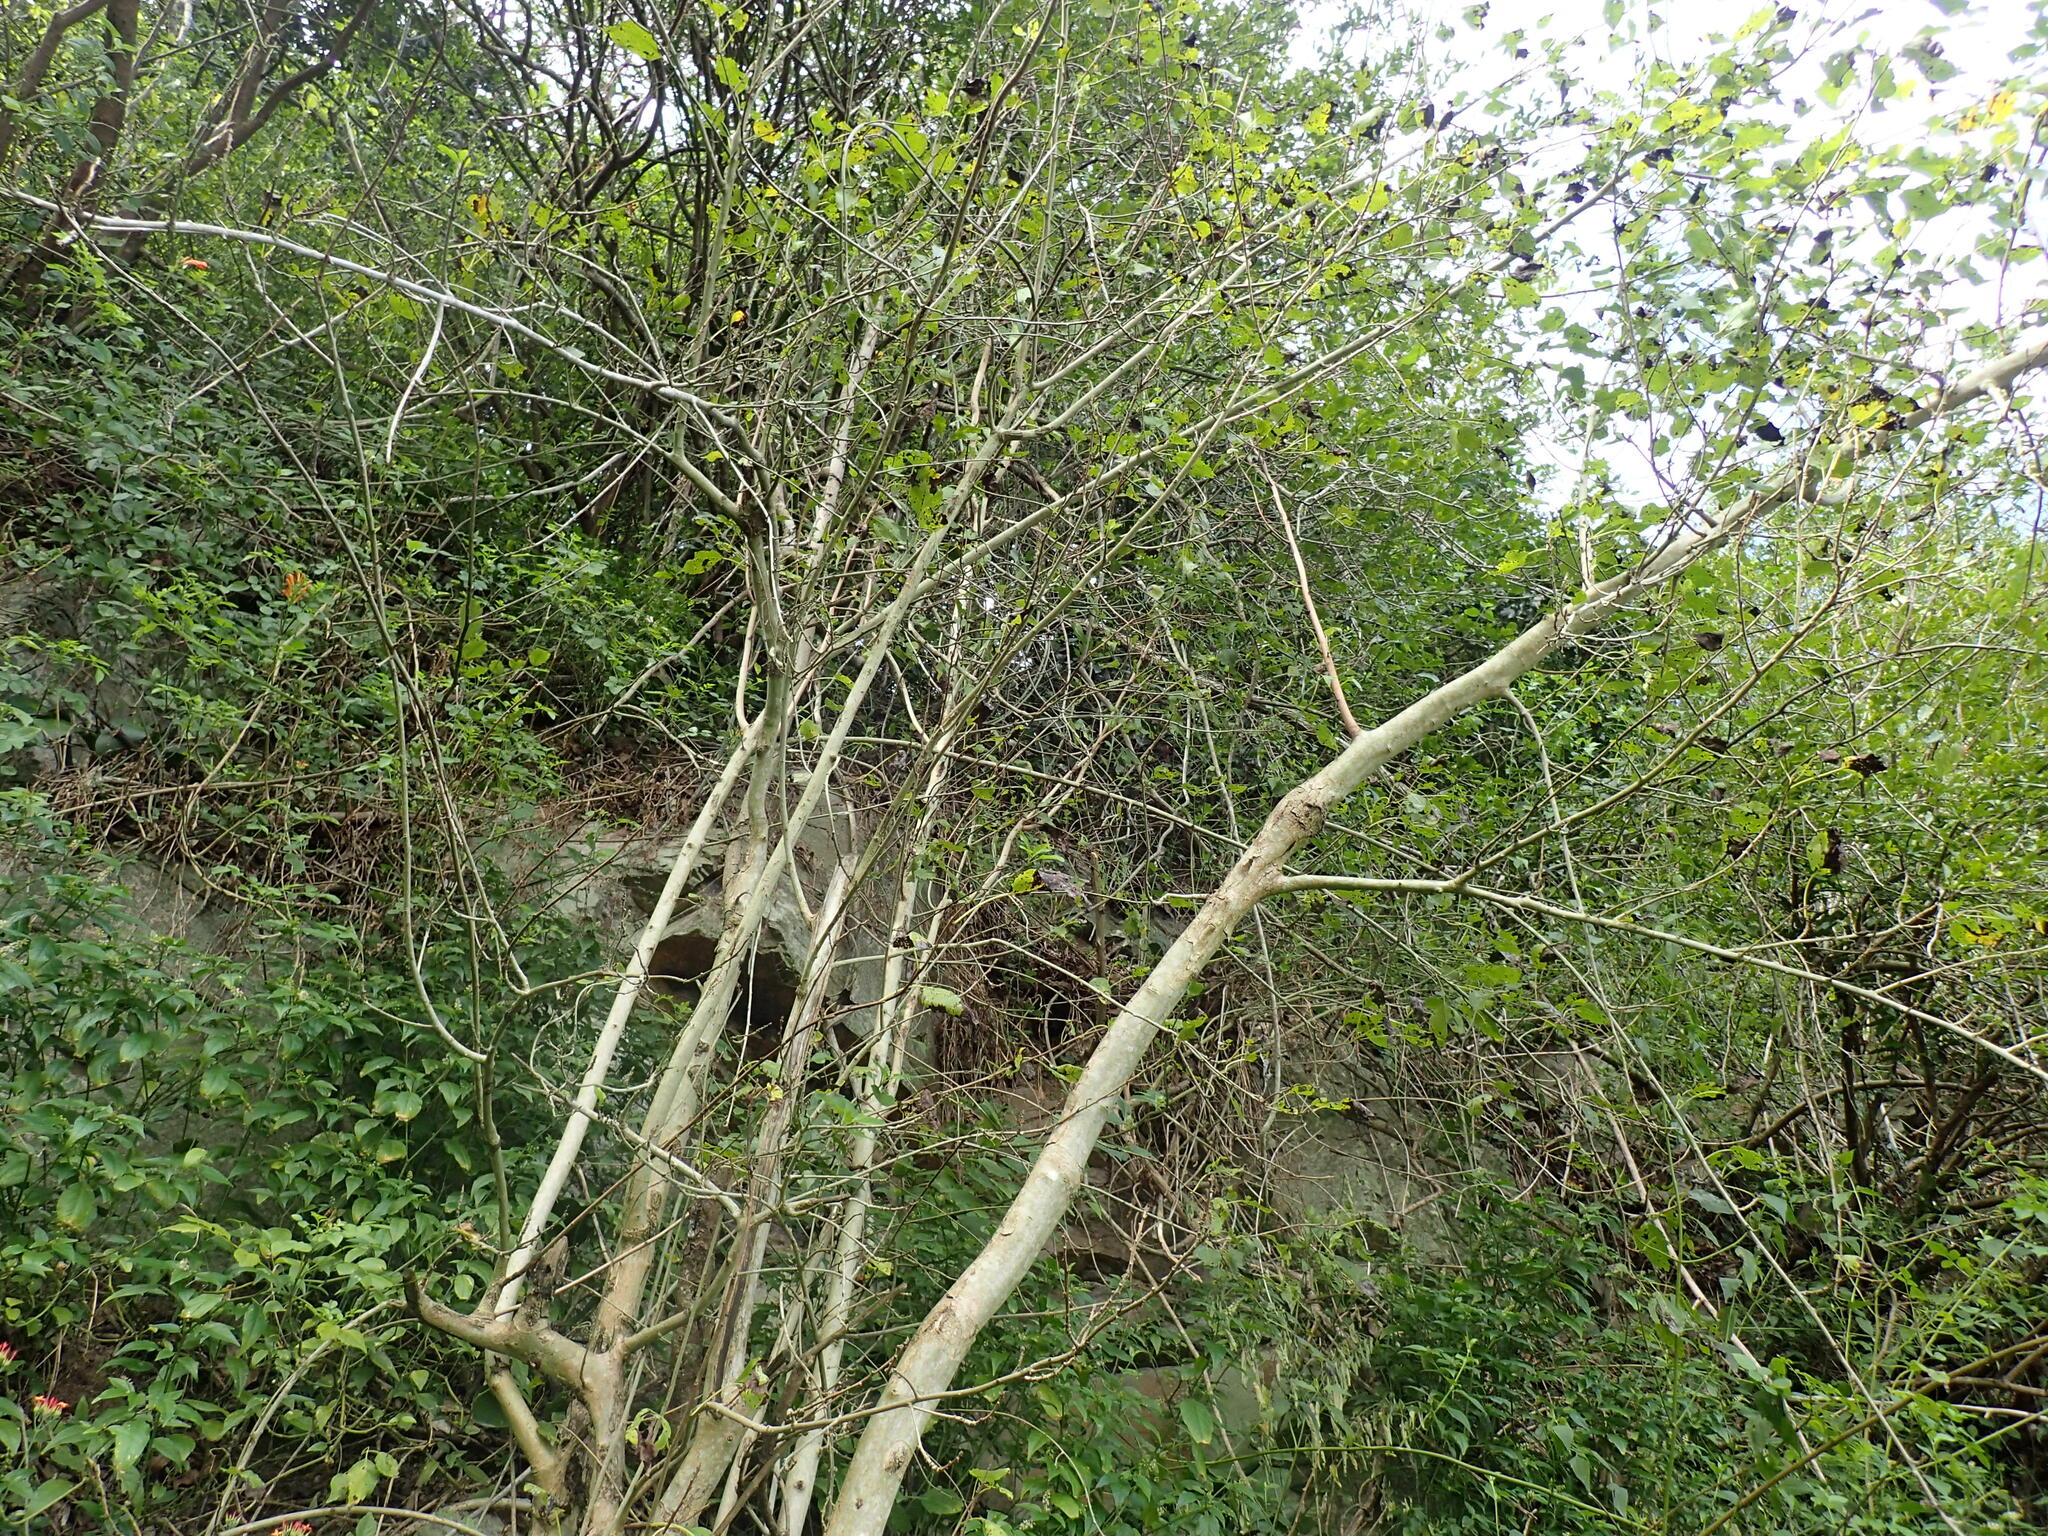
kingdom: Plantae
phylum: Tracheophyta
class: Magnoliopsida
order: Boraginales
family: Cordiaceae
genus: Cordia
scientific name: Cordia caffra
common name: Septee tree
